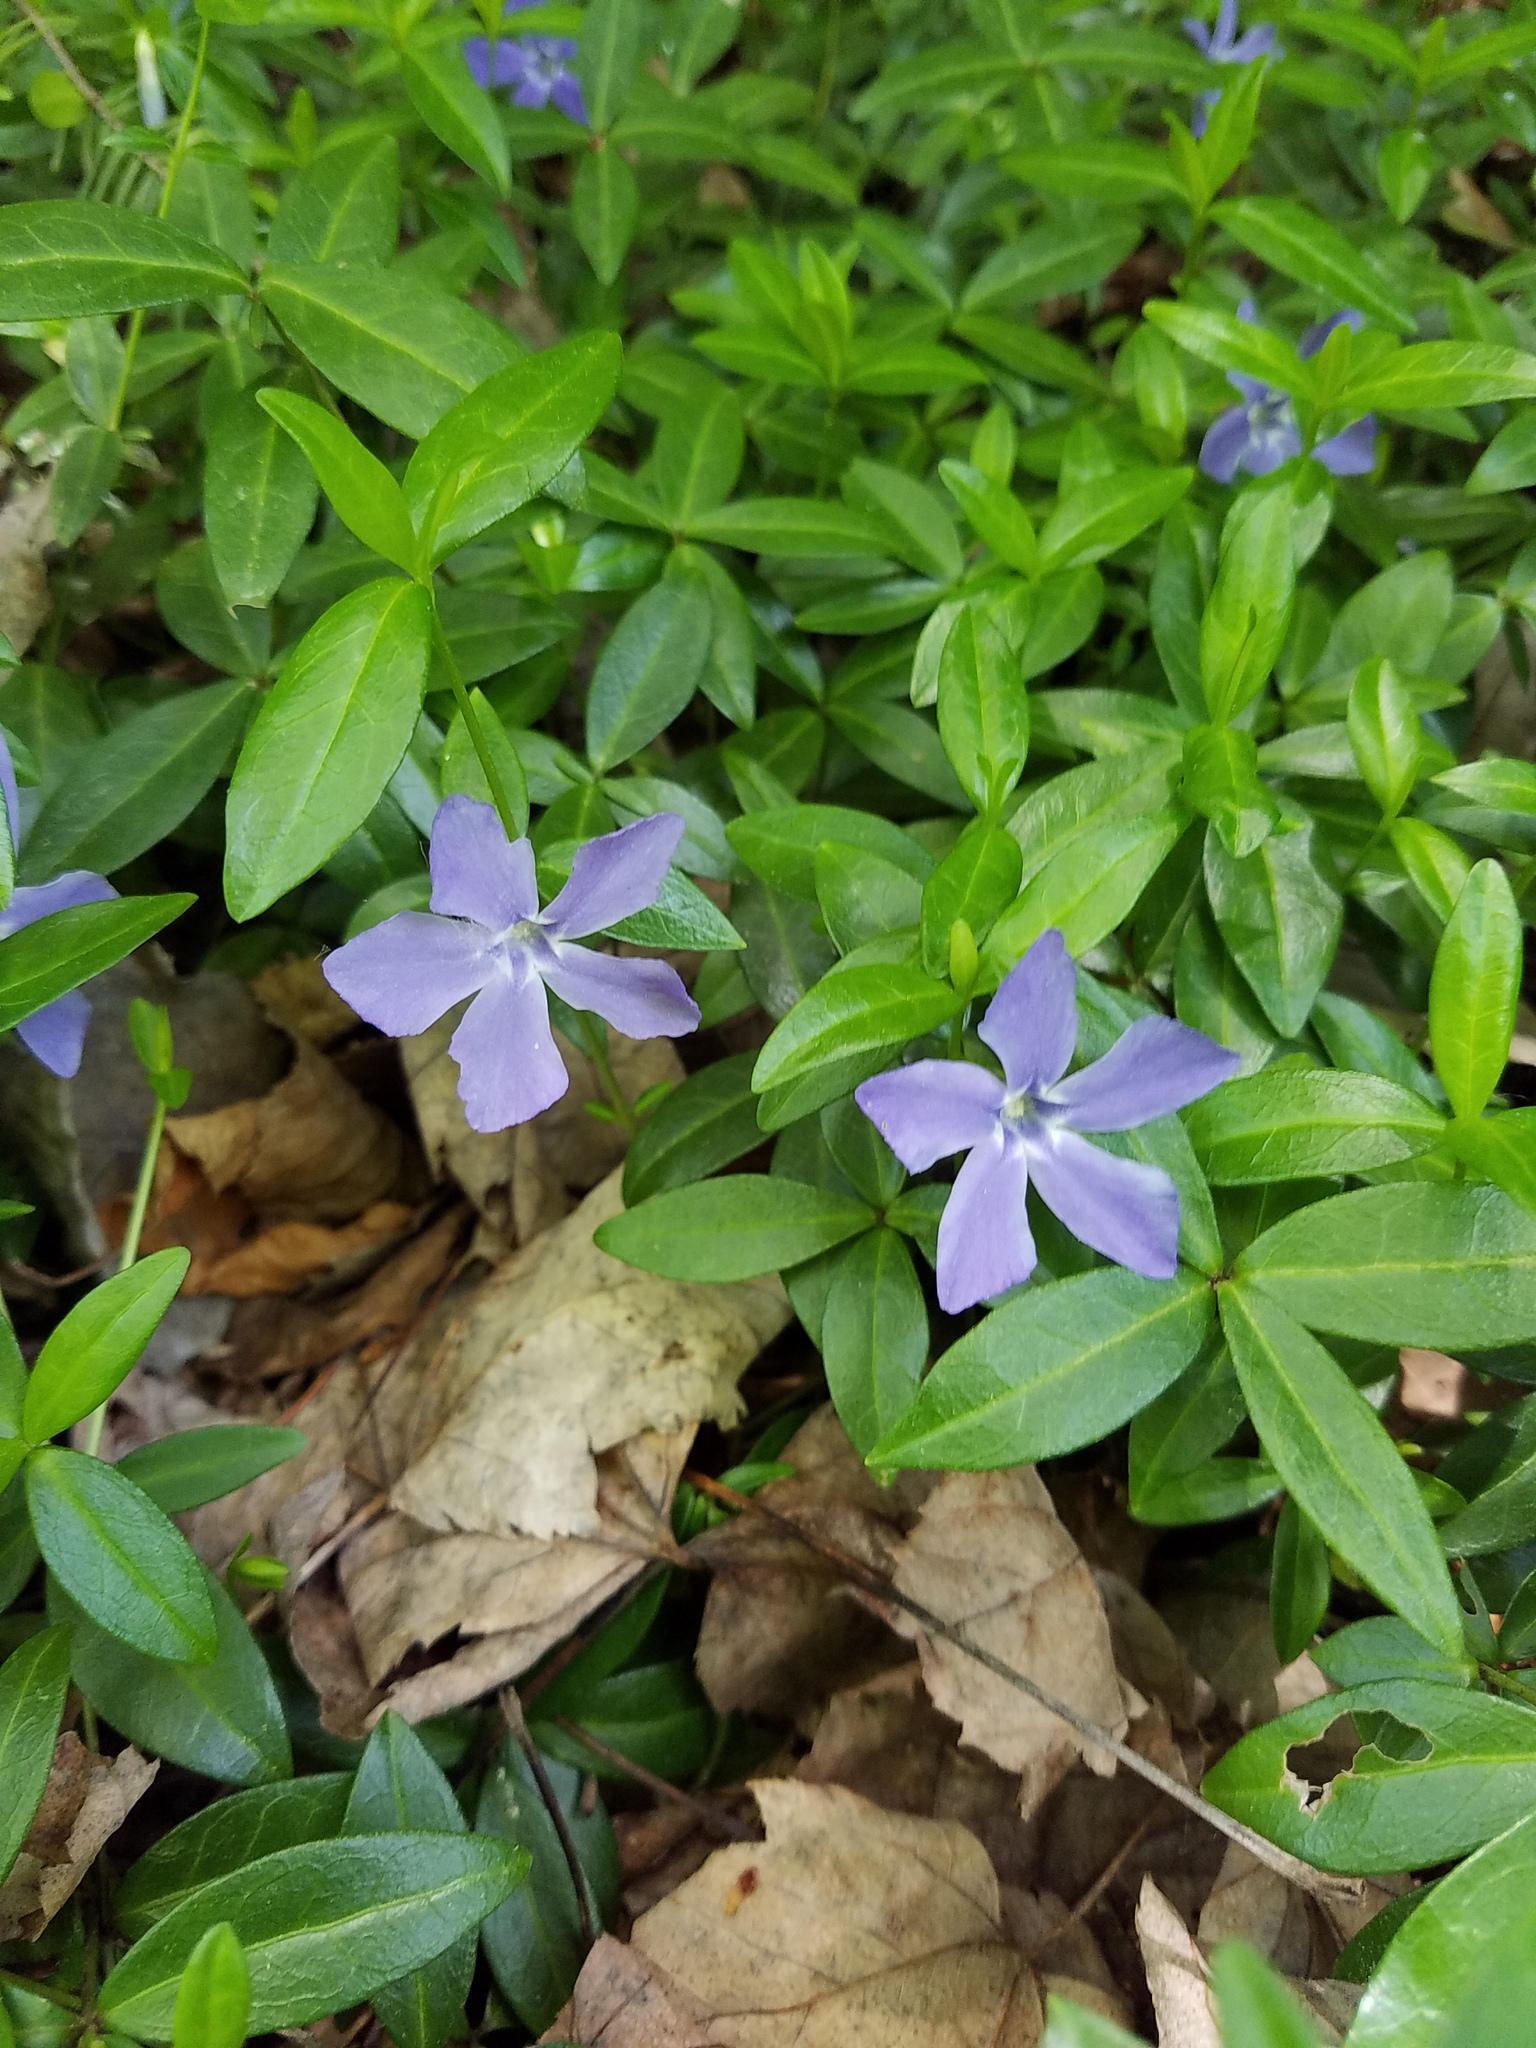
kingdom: Plantae
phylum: Tracheophyta
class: Magnoliopsida
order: Gentianales
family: Apocynaceae
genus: Vinca
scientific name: Vinca minor
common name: Lesser periwinkle
